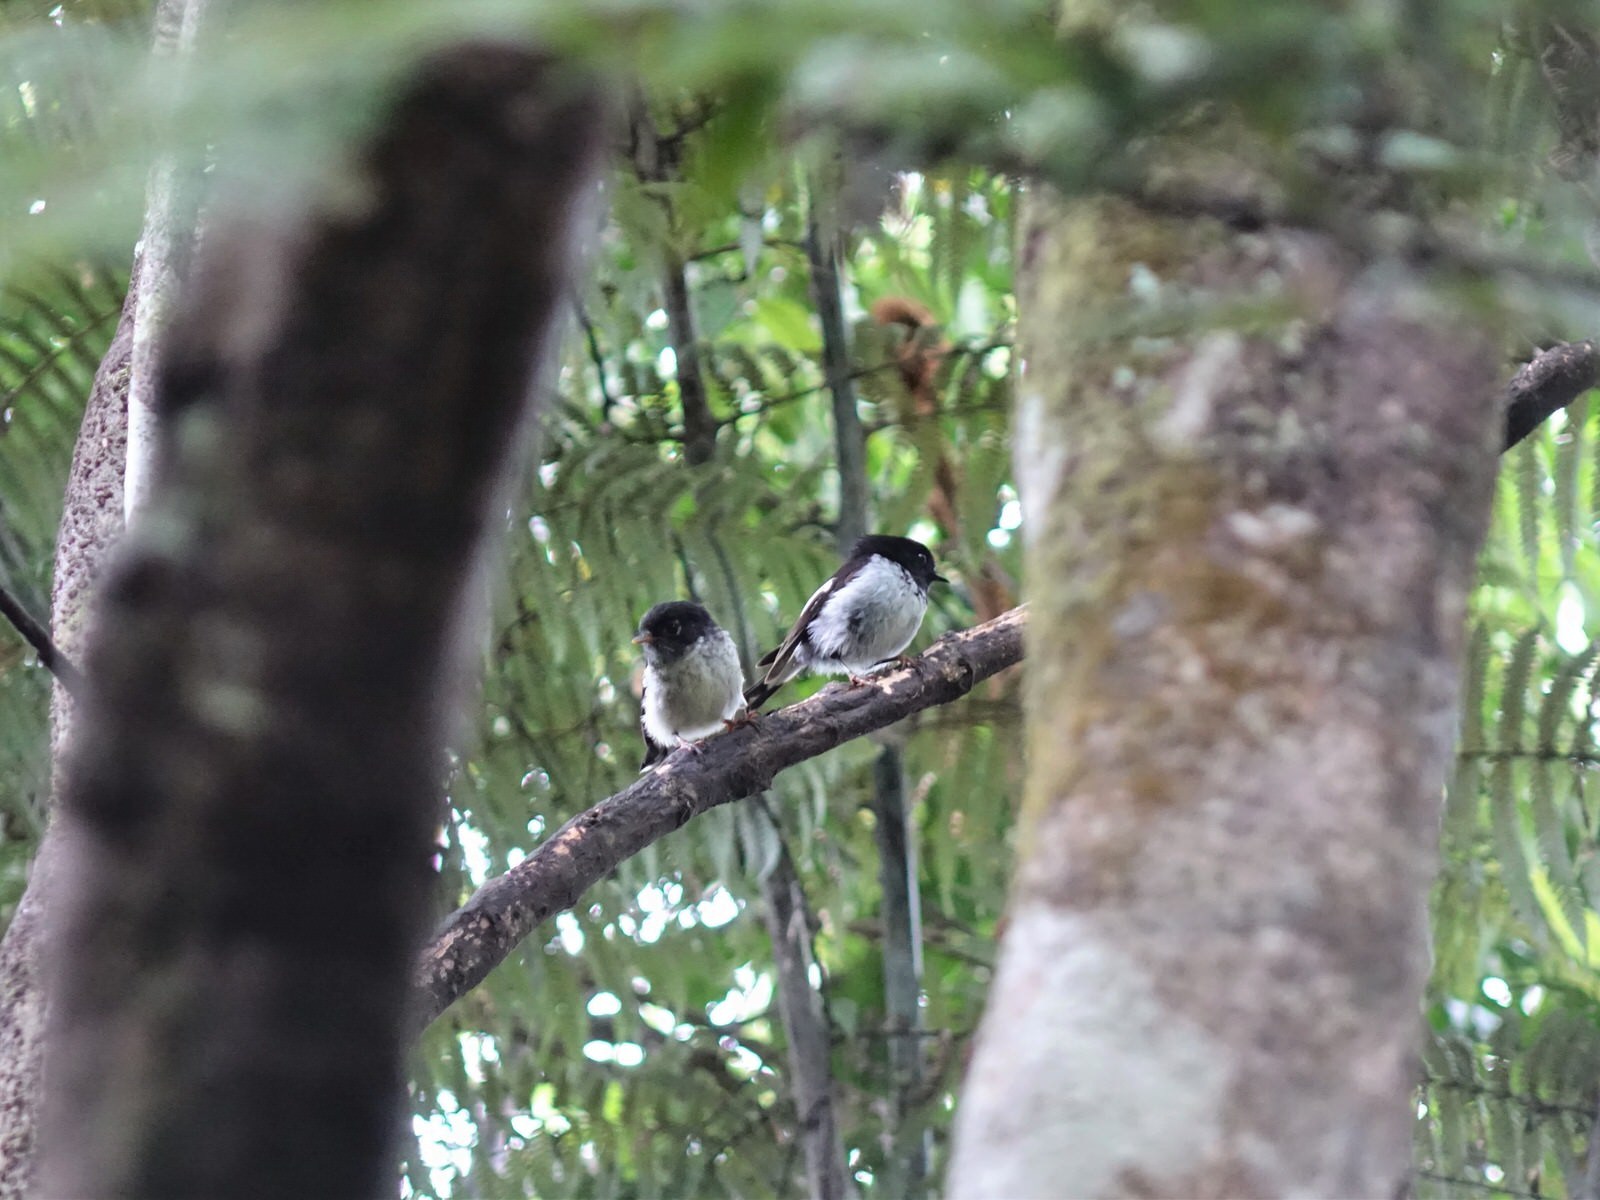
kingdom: Animalia
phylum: Chordata
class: Aves
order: Passeriformes
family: Petroicidae
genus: Petroica
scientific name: Petroica macrocephala
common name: Tomtit
